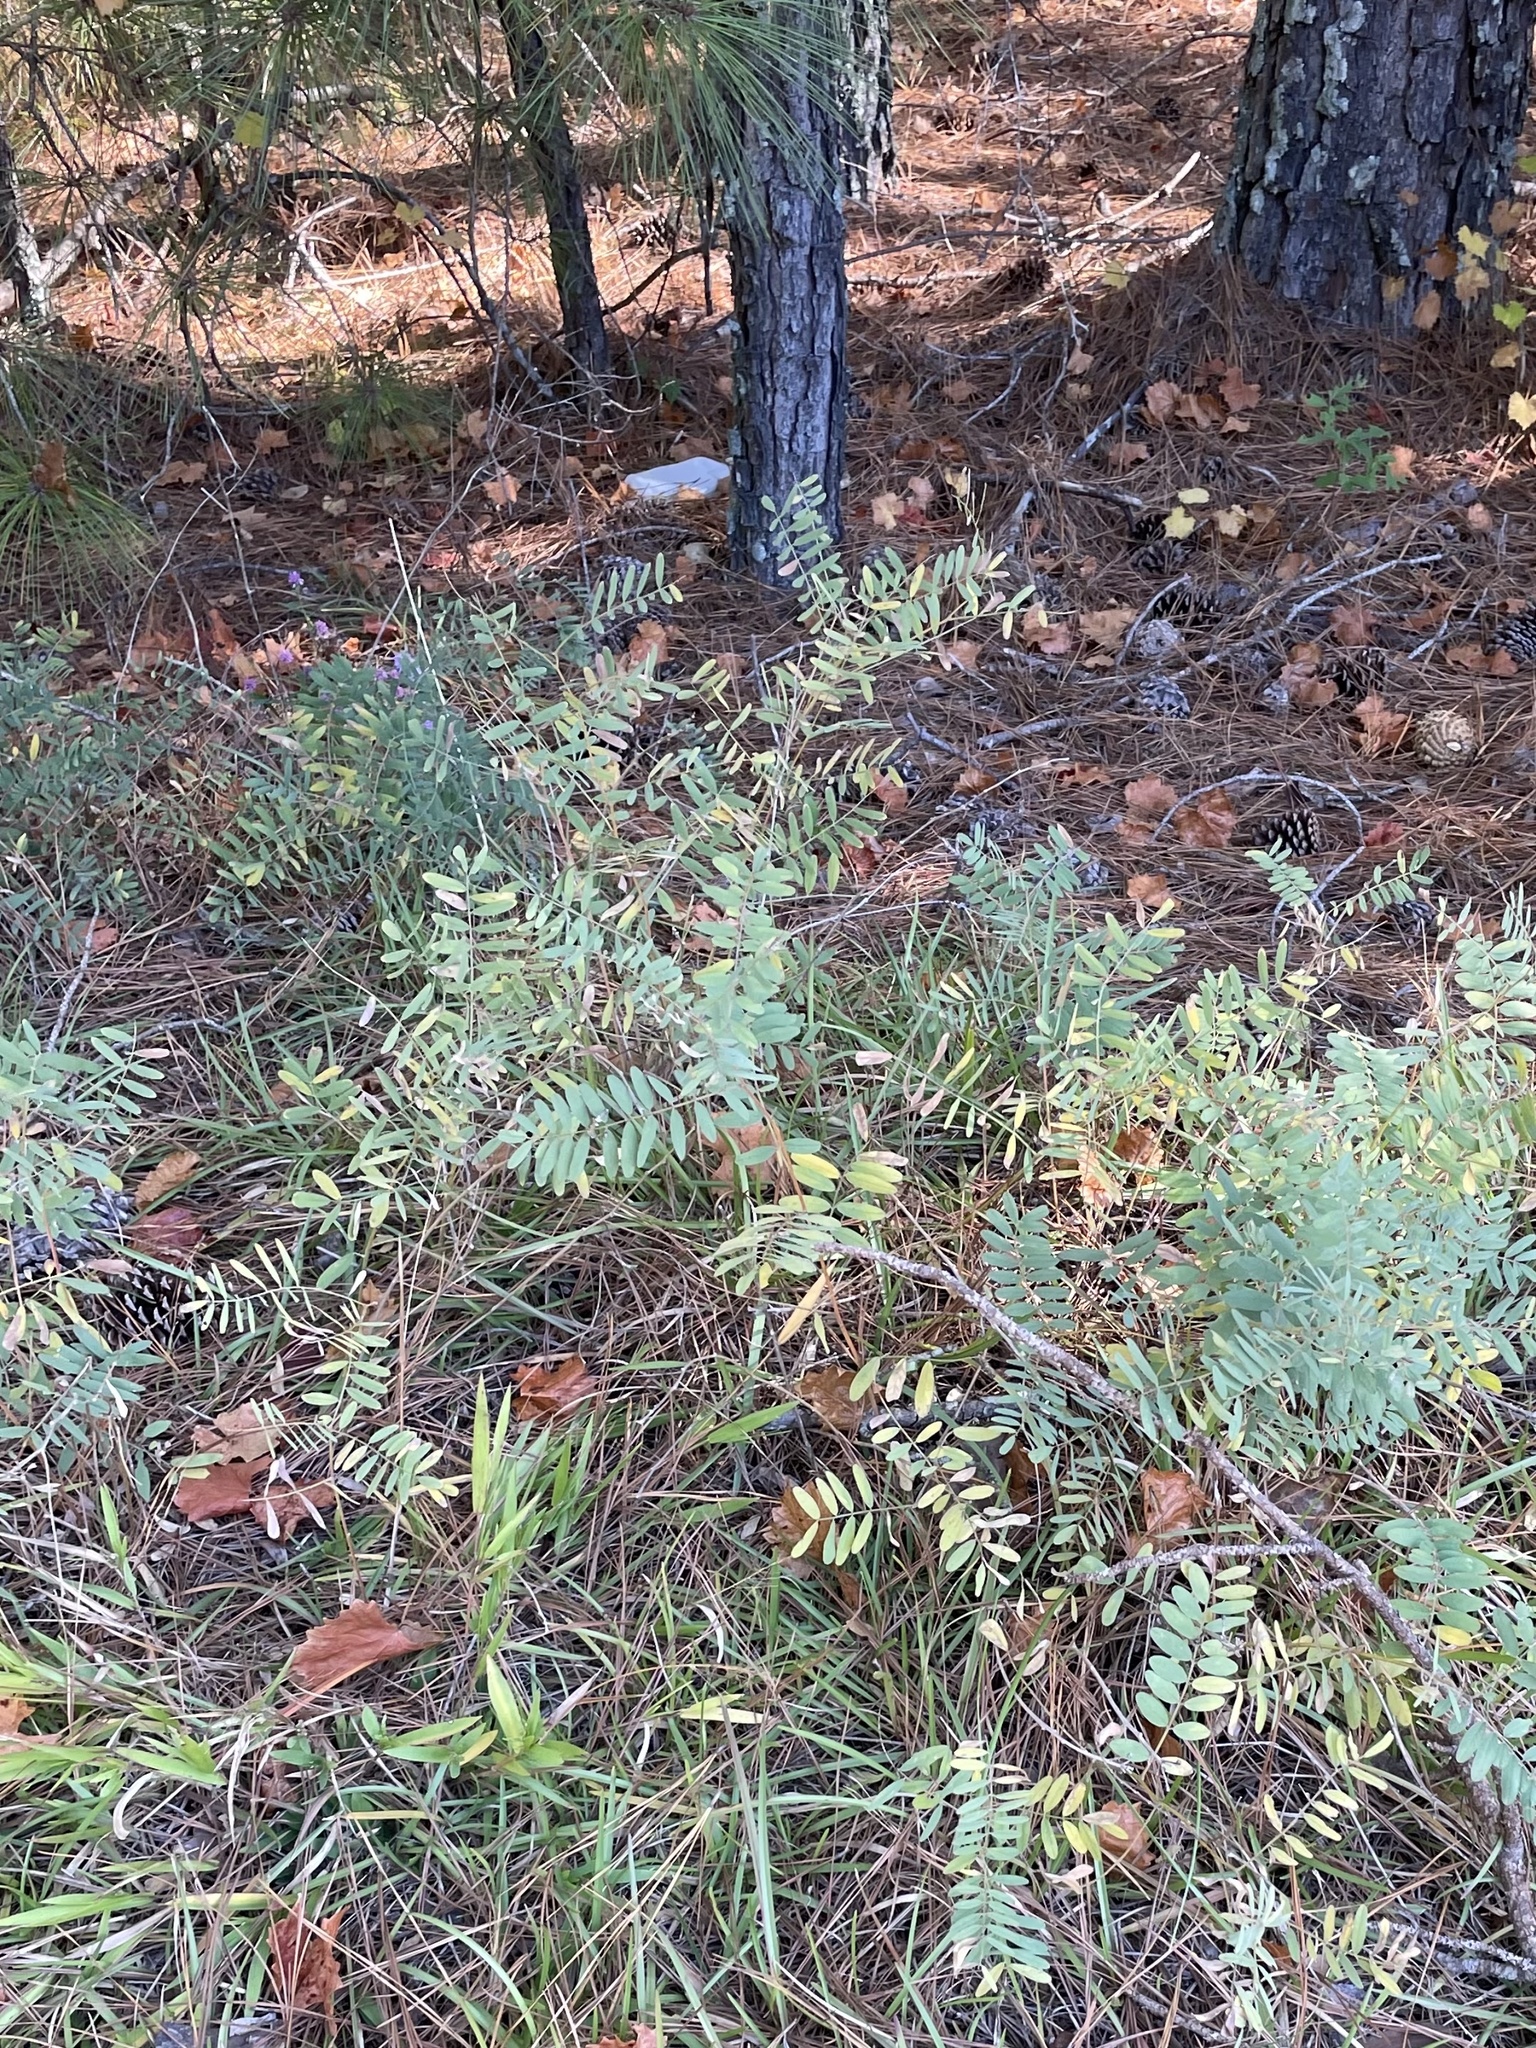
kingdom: Plantae
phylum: Tracheophyta
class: Magnoliopsida
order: Fabales
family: Fabaceae
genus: Tephrosia
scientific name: Tephrosia virginiana
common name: Rabbit-pea
